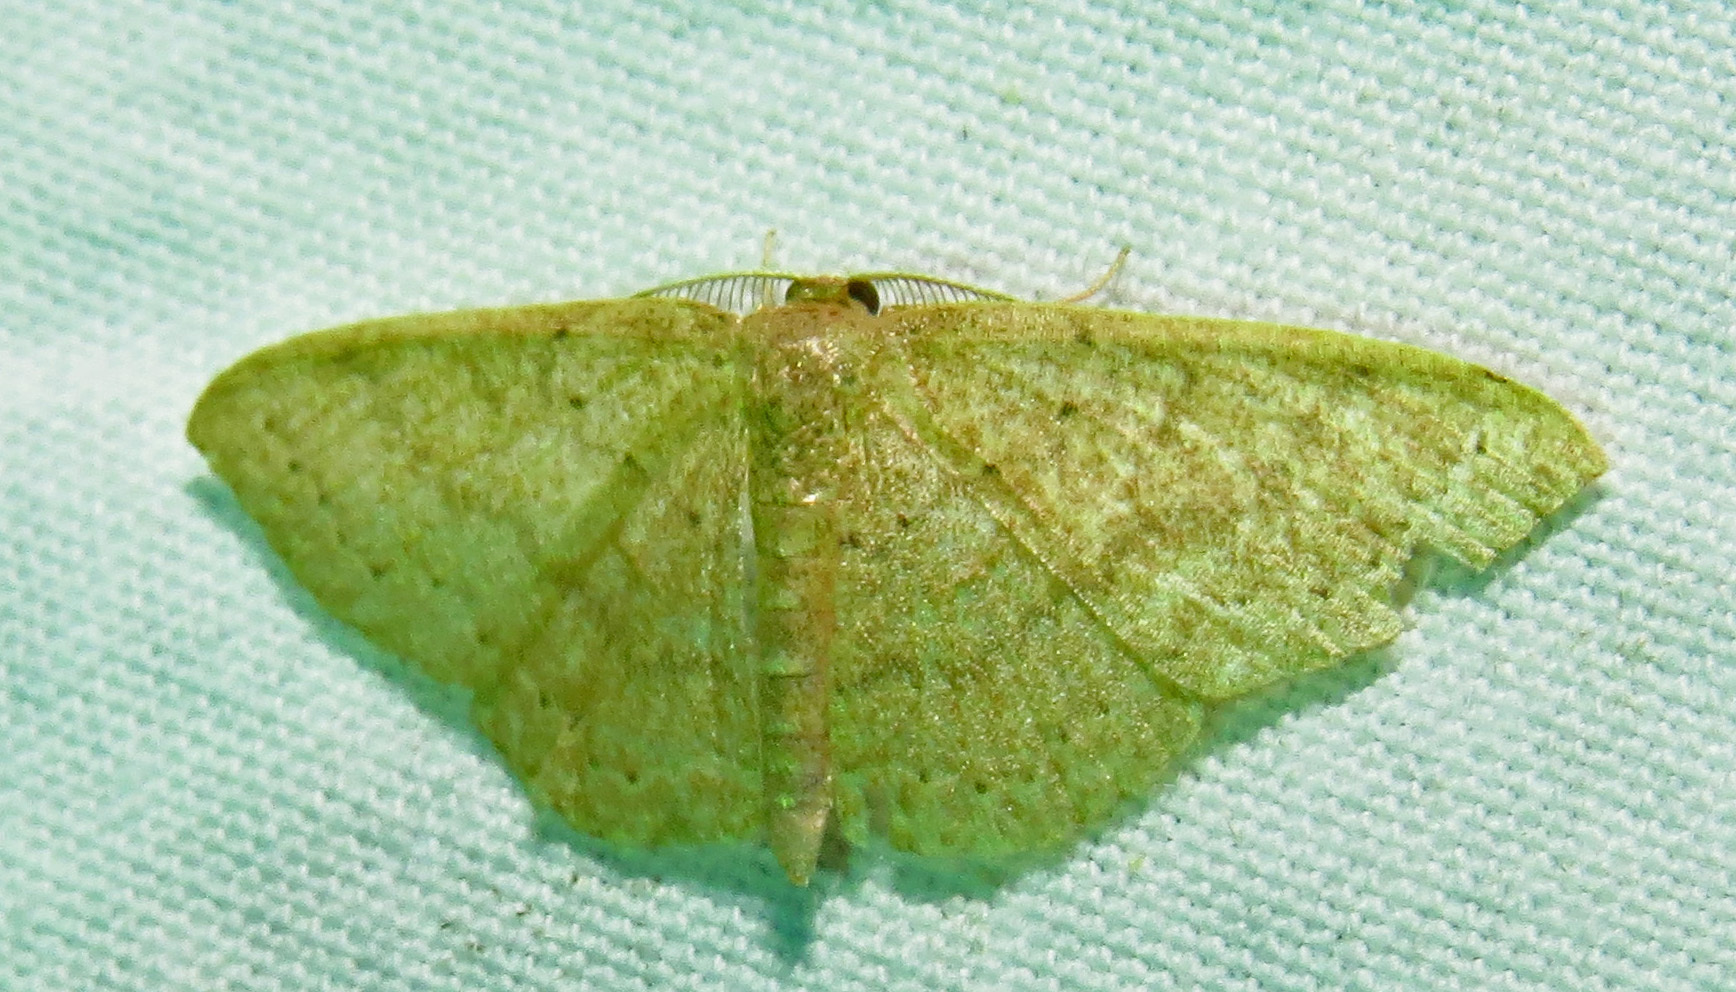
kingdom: Animalia
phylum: Arthropoda
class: Insecta
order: Lepidoptera
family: Geometridae
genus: Pleuroprucha
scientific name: Pleuroprucha insulsaria
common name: Common tan wave
